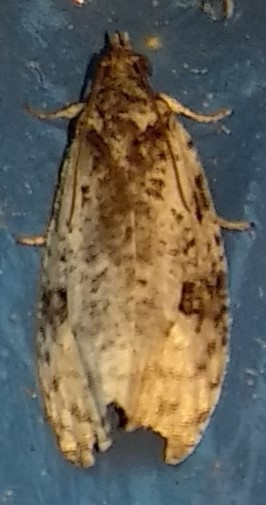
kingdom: Animalia
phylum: Arthropoda
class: Insecta
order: Lepidoptera
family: Tortricidae
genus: Apotomis
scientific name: Apotomis albeolana
